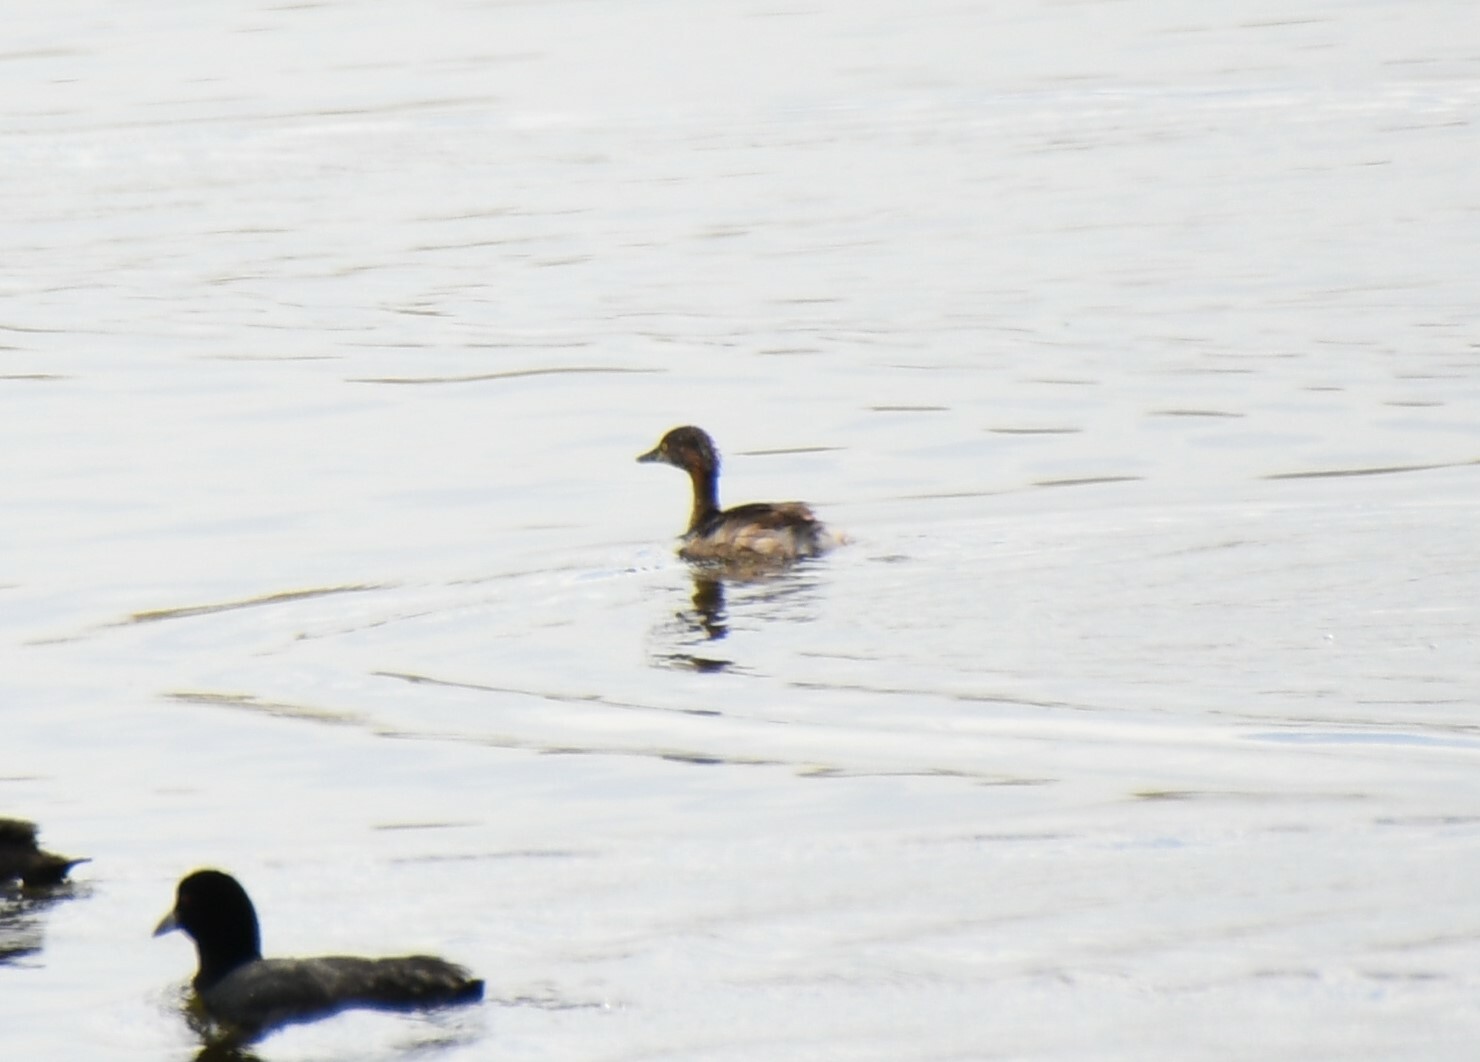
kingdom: Animalia
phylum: Chordata
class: Aves
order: Podicipediformes
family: Podicipedidae
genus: Tachybaptus
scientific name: Tachybaptus novaehollandiae
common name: Australasian grebe
